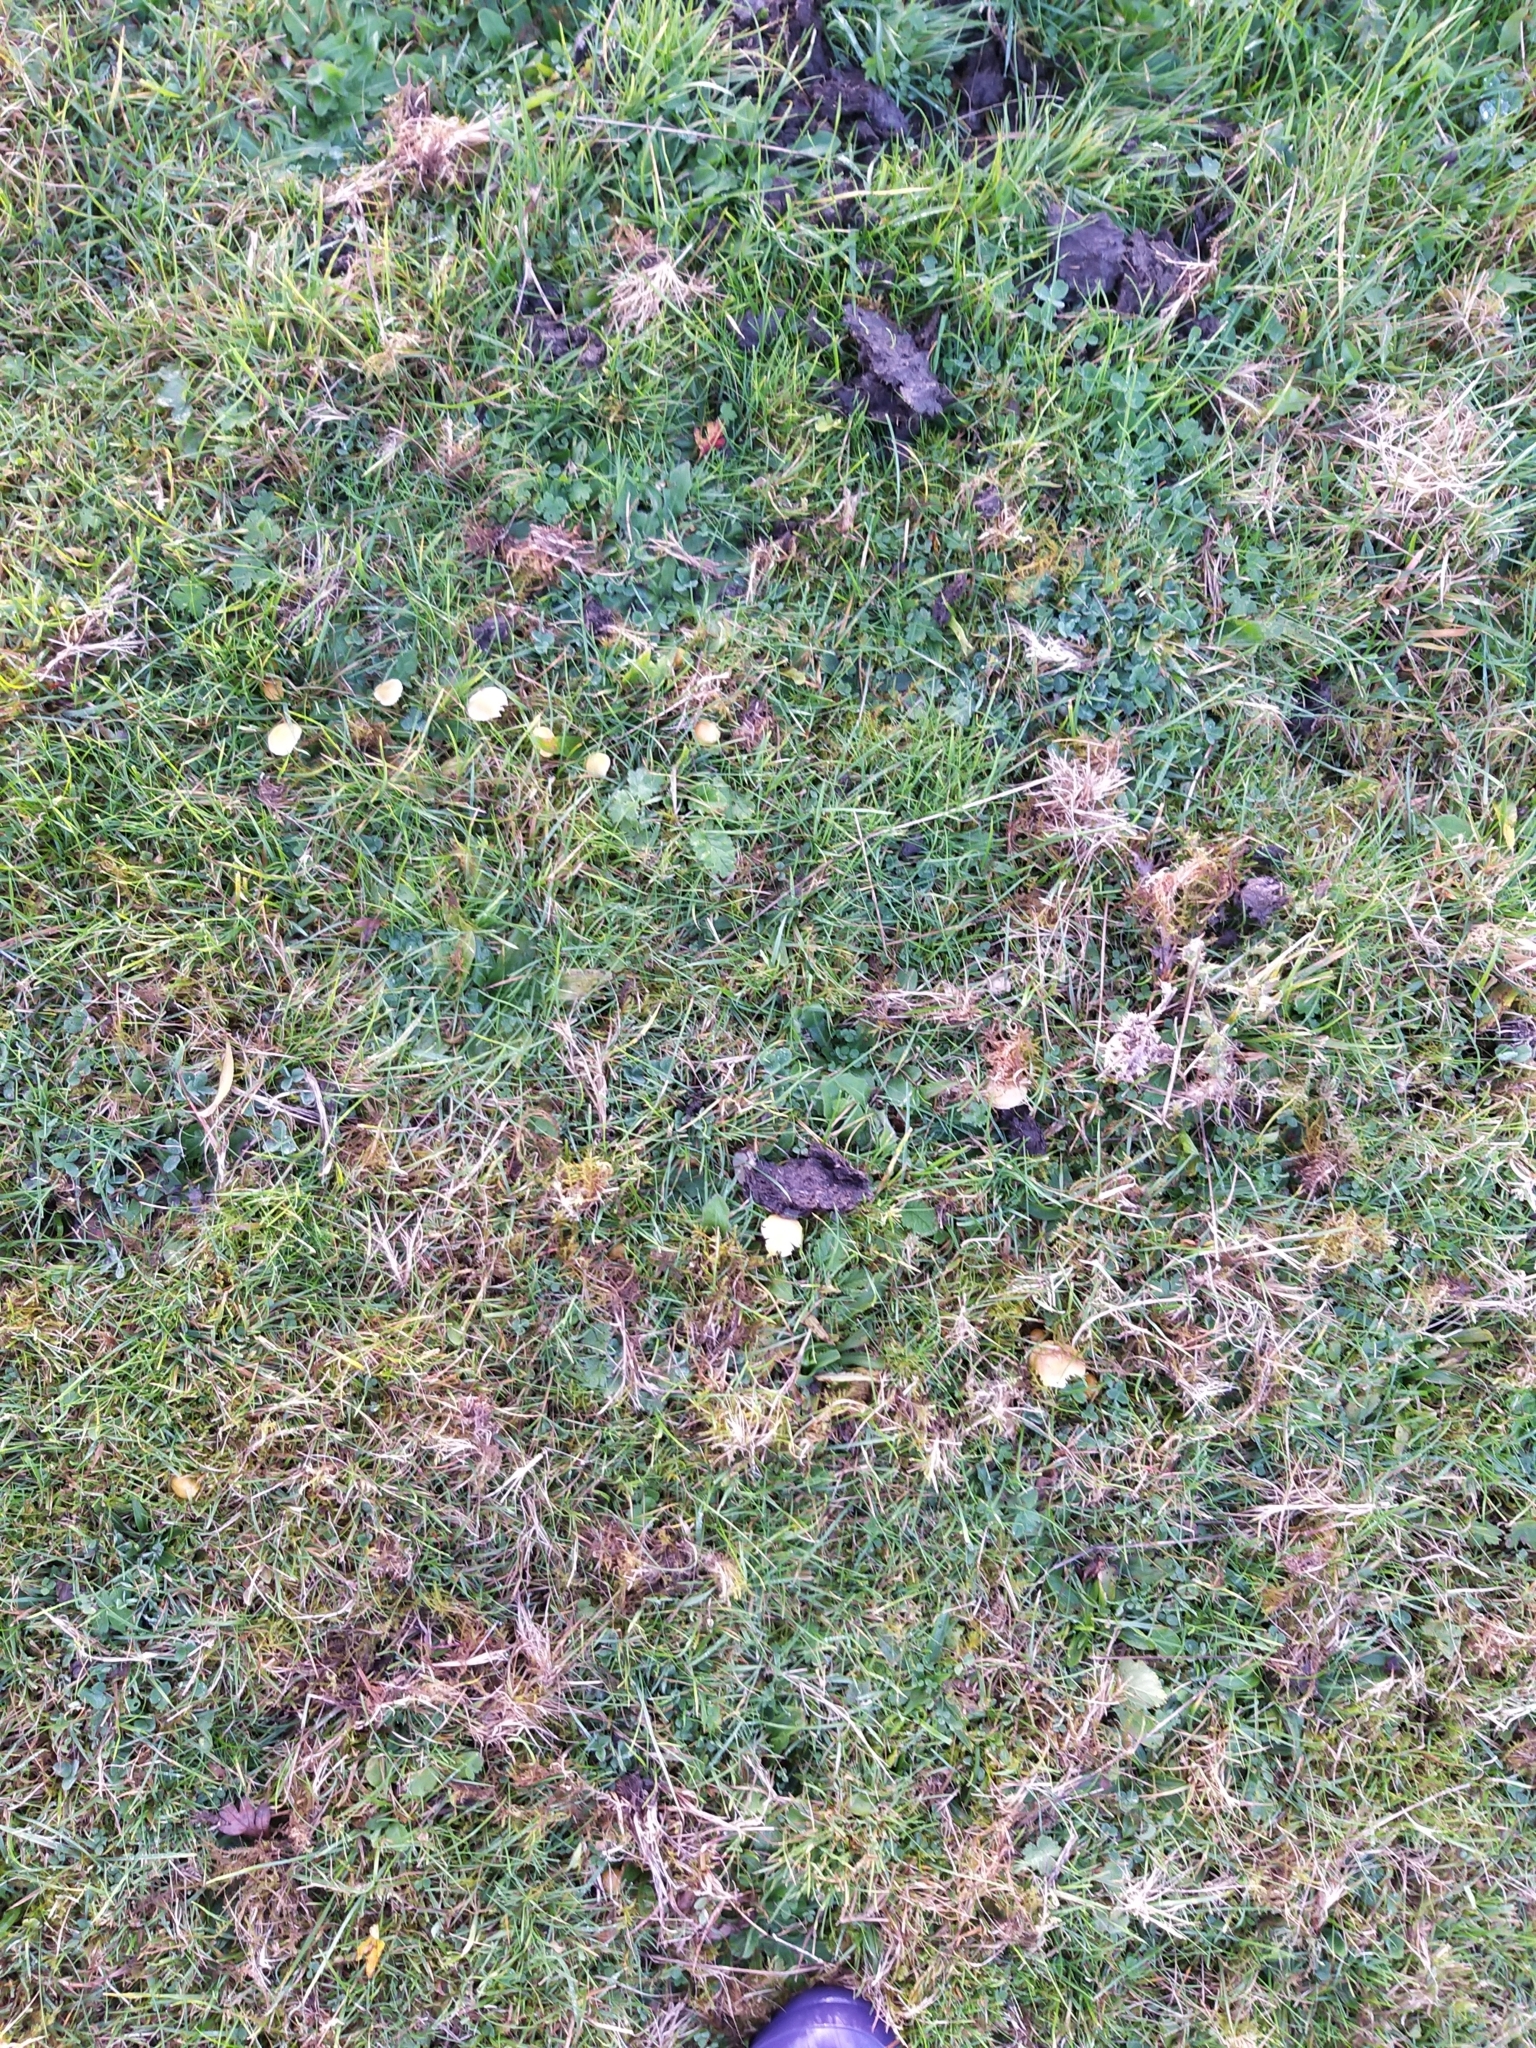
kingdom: Fungi
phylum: Basidiomycota
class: Agaricomycetes
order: Agaricales
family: Hygrophoraceae
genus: Gliophorus
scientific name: Gliophorus psittacinus
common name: Parrot wax-cap
